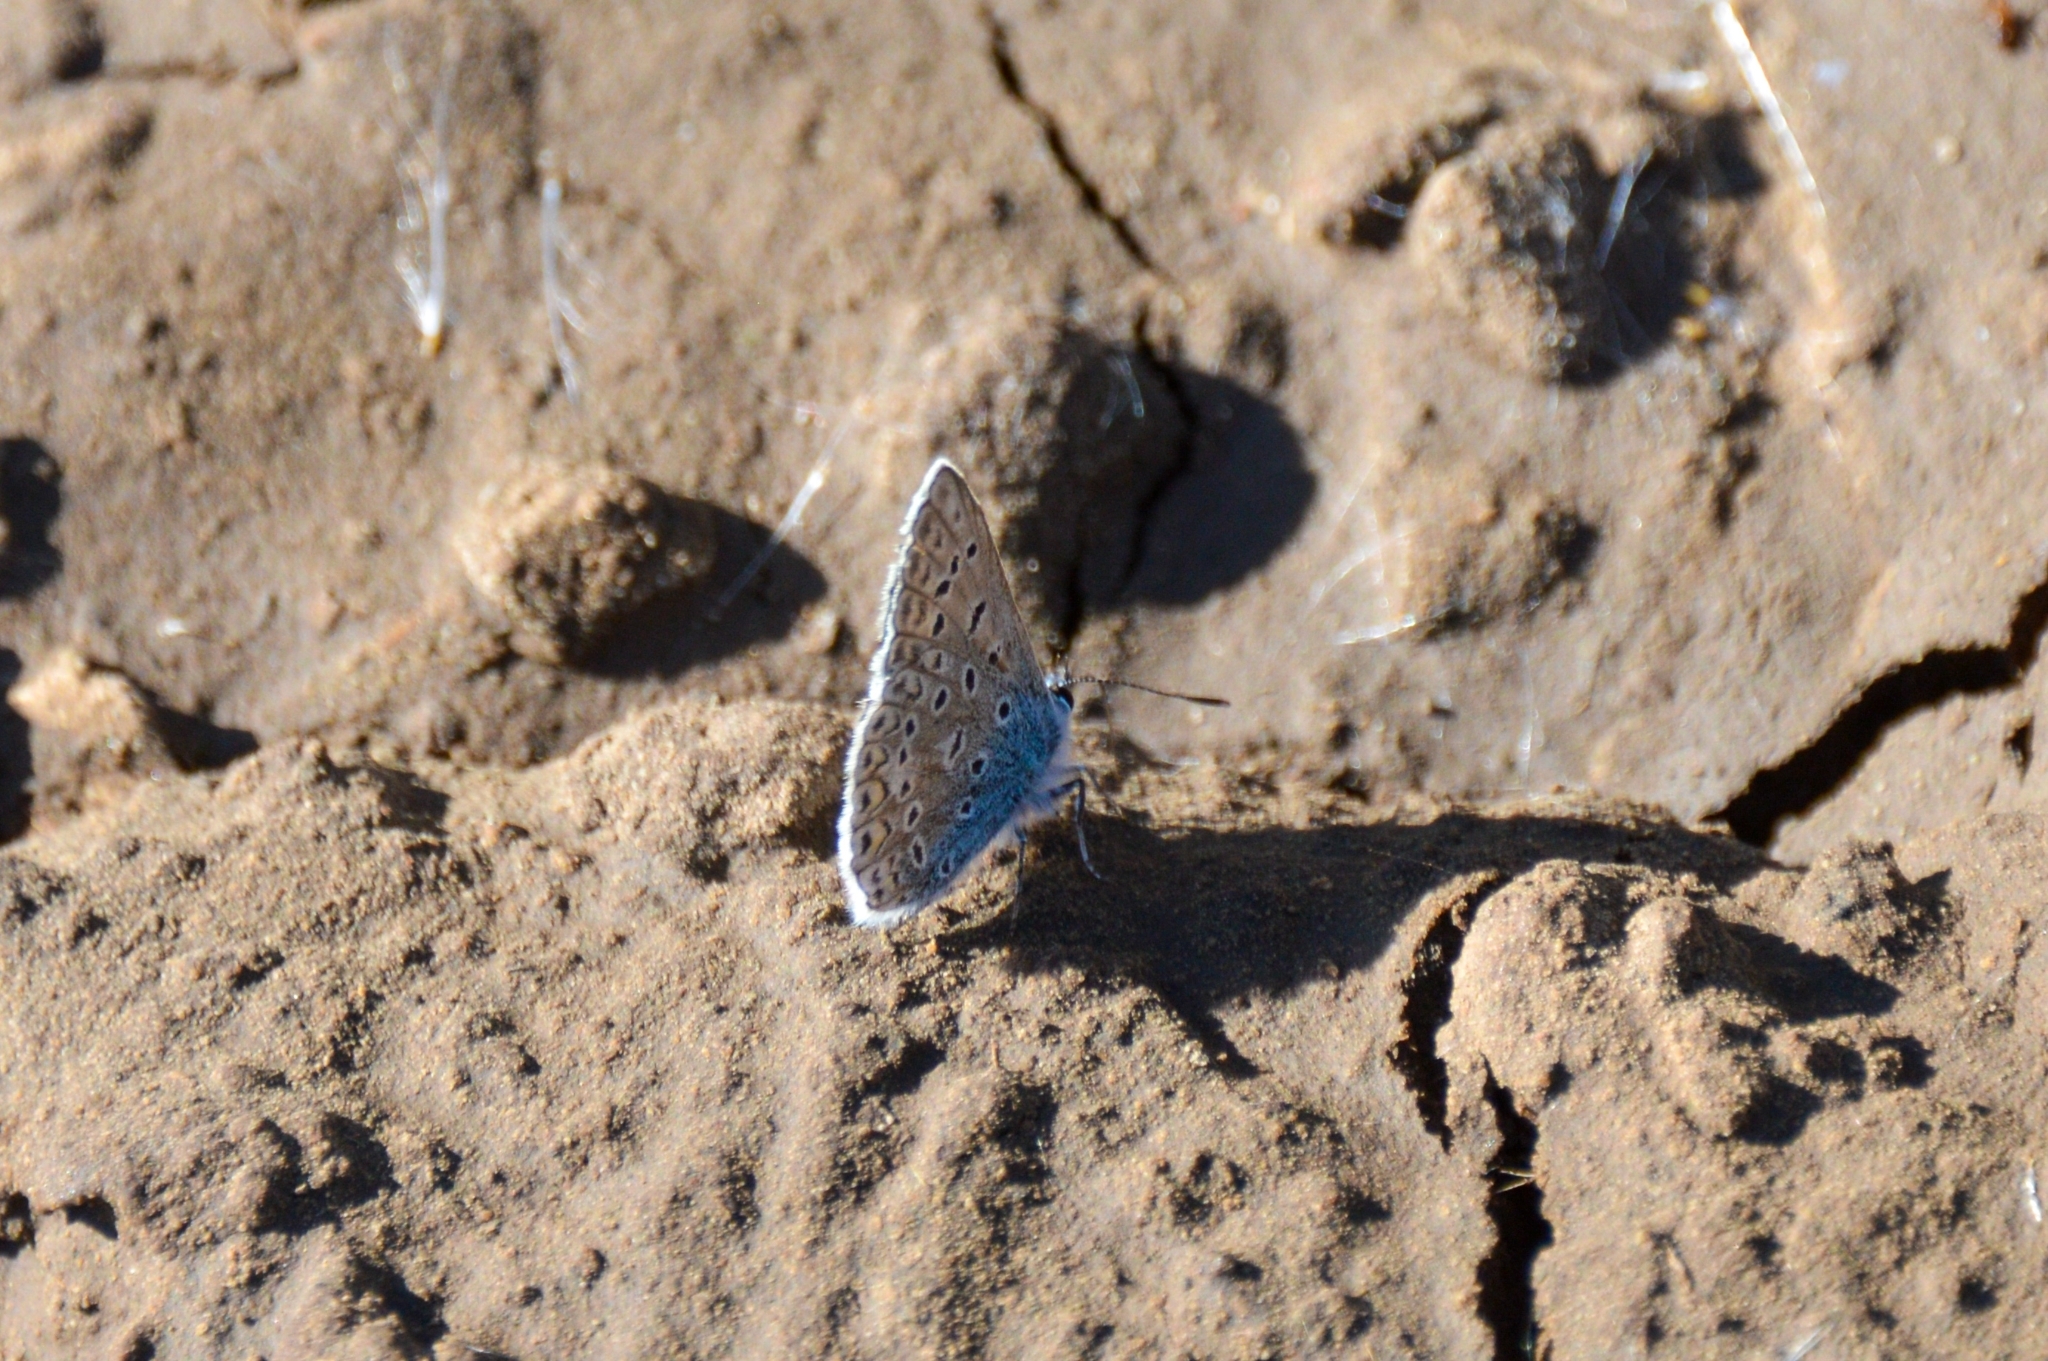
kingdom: Animalia
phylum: Arthropoda
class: Insecta
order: Lepidoptera
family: Lycaenidae
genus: Polyommatus
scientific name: Polyommatus icarus
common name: Common blue
